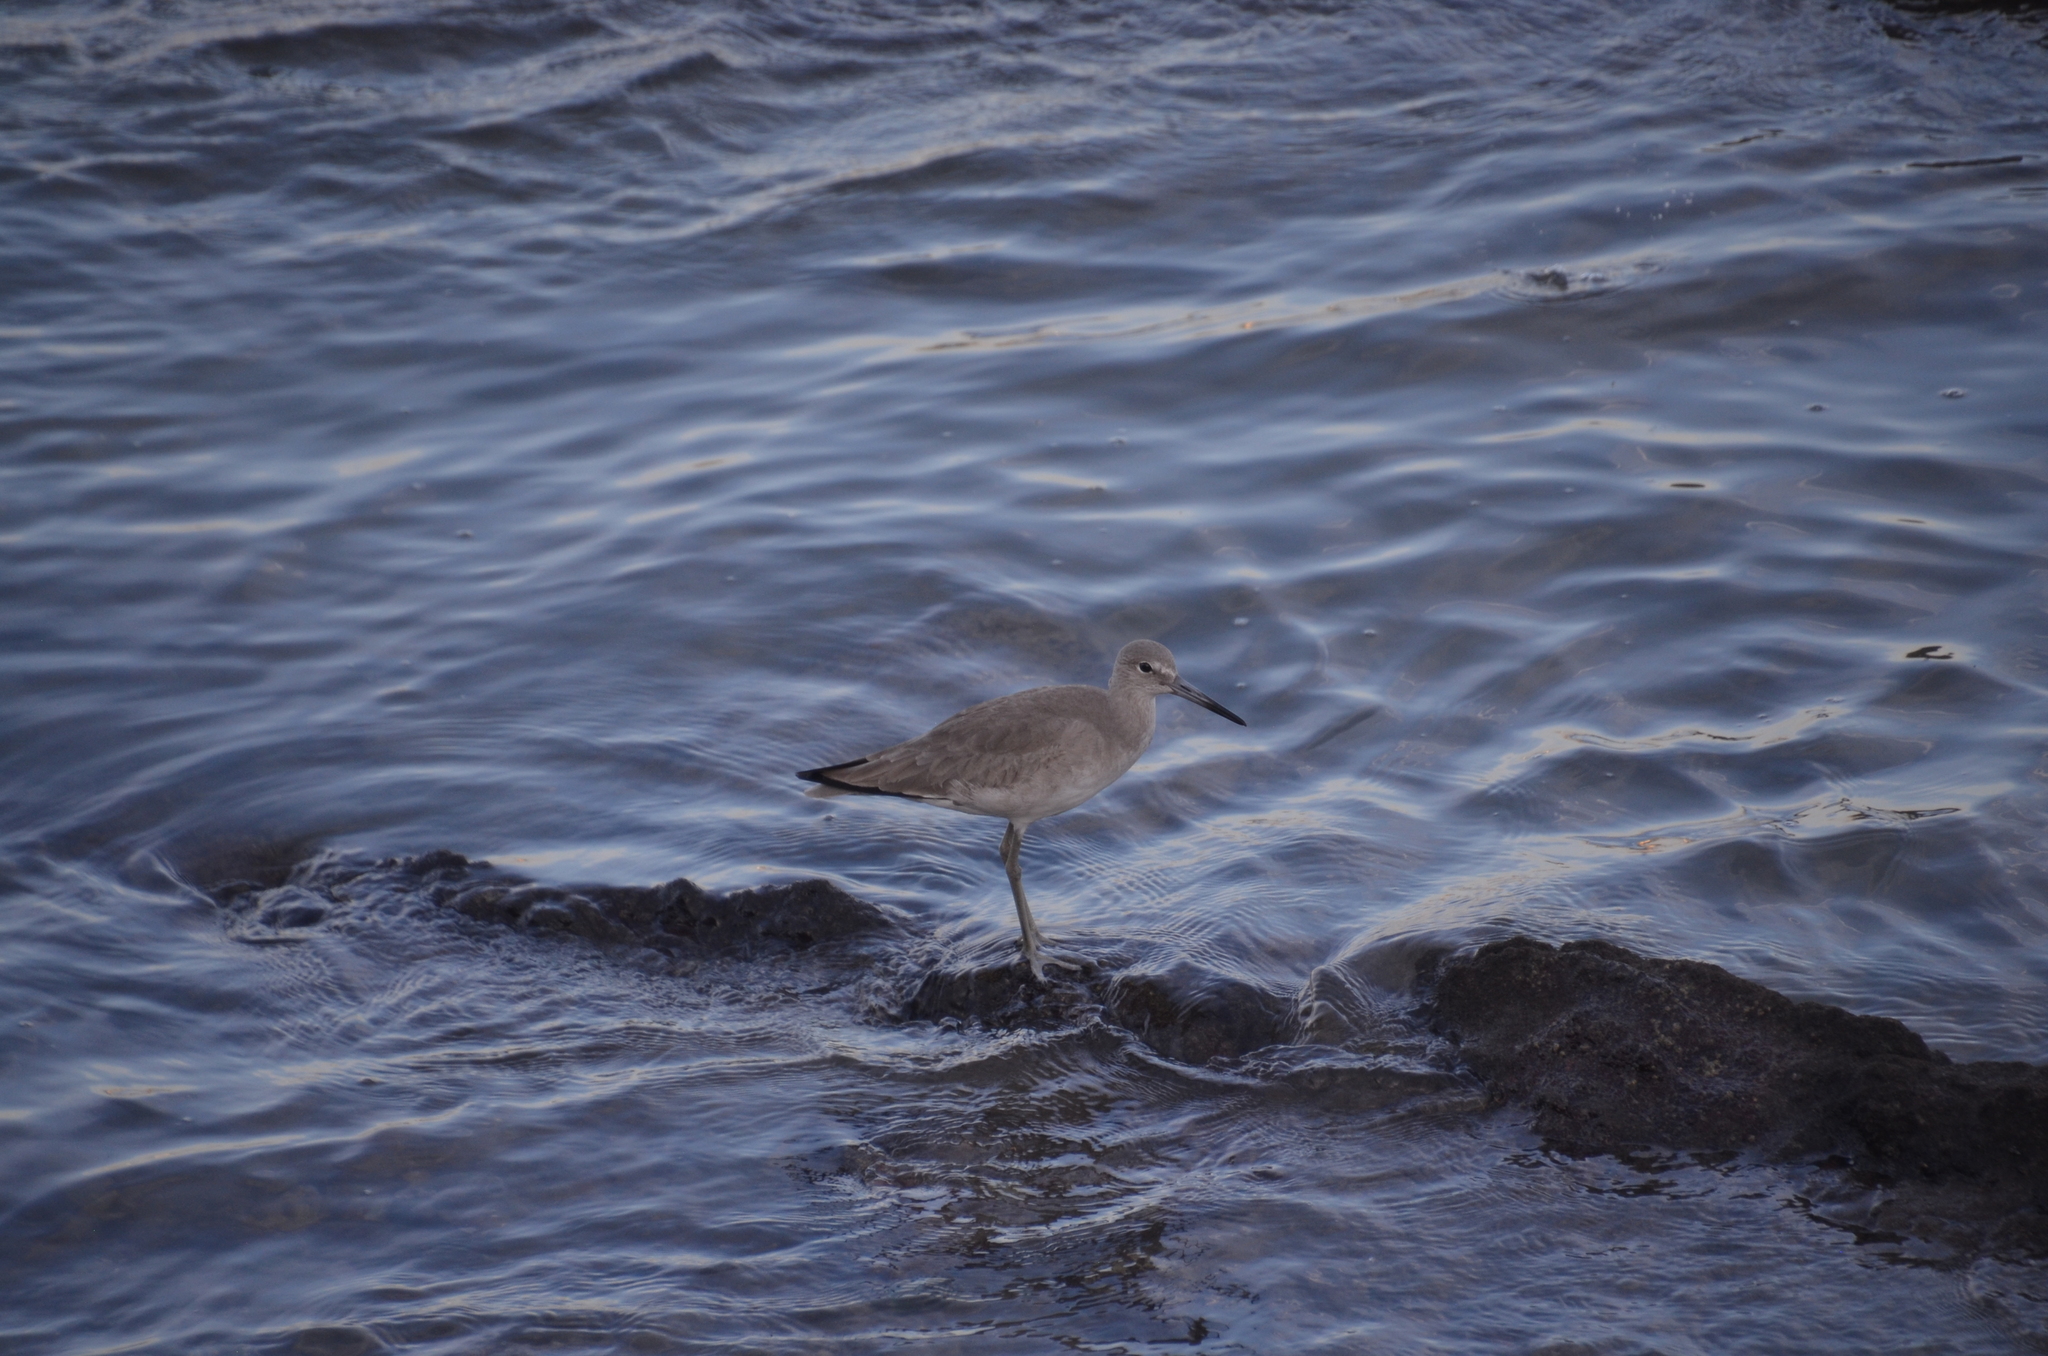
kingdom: Animalia
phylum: Chordata
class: Aves
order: Charadriiformes
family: Scolopacidae
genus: Tringa
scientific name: Tringa semipalmata
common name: Willet
